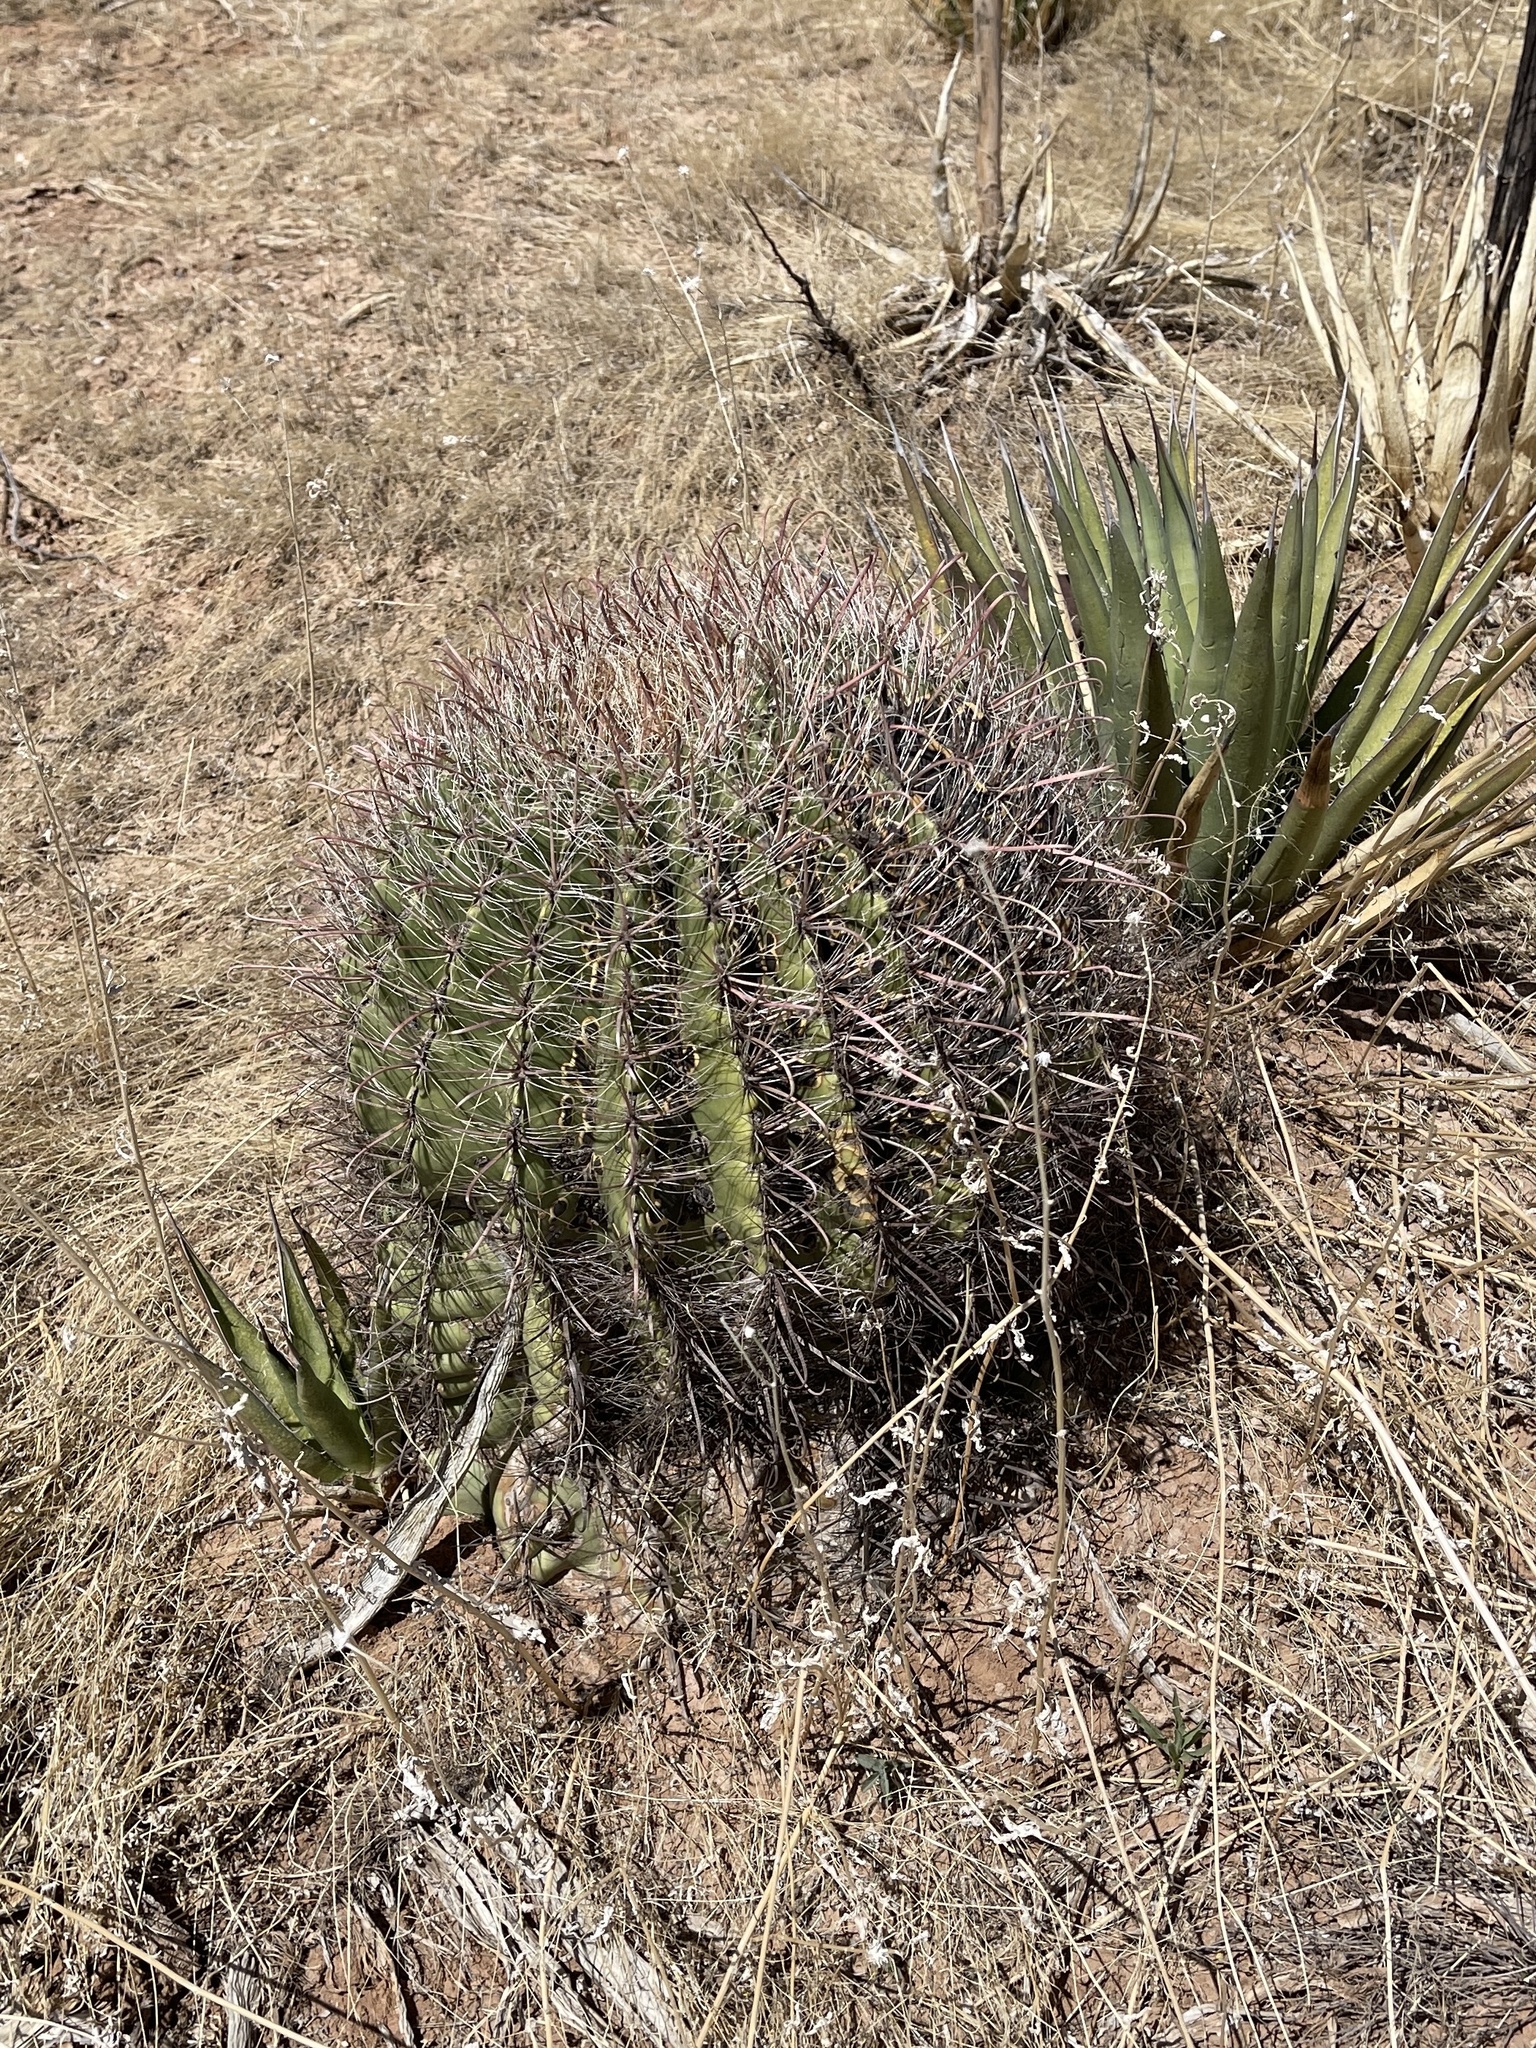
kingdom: Plantae
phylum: Tracheophyta
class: Magnoliopsida
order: Caryophyllales
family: Cactaceae
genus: Ferocactus
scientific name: Ferocactus wislizeni
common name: Candy barrel cactus
